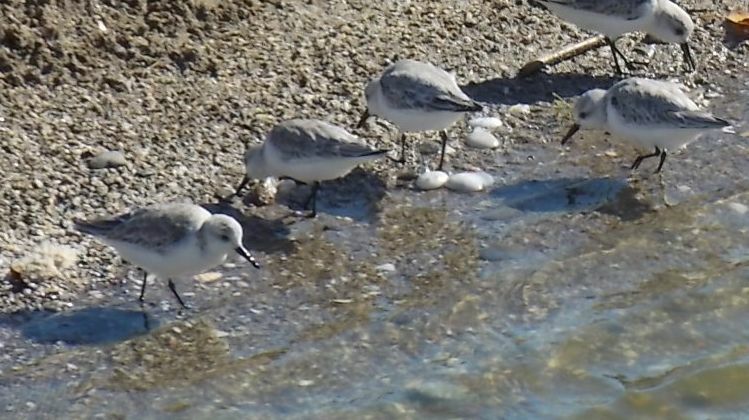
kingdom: Animalia
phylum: Chordata
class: Aves
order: Charadriiformes
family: Scolopacidae
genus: Calidris
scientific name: Calidris alba
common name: Sanderling
